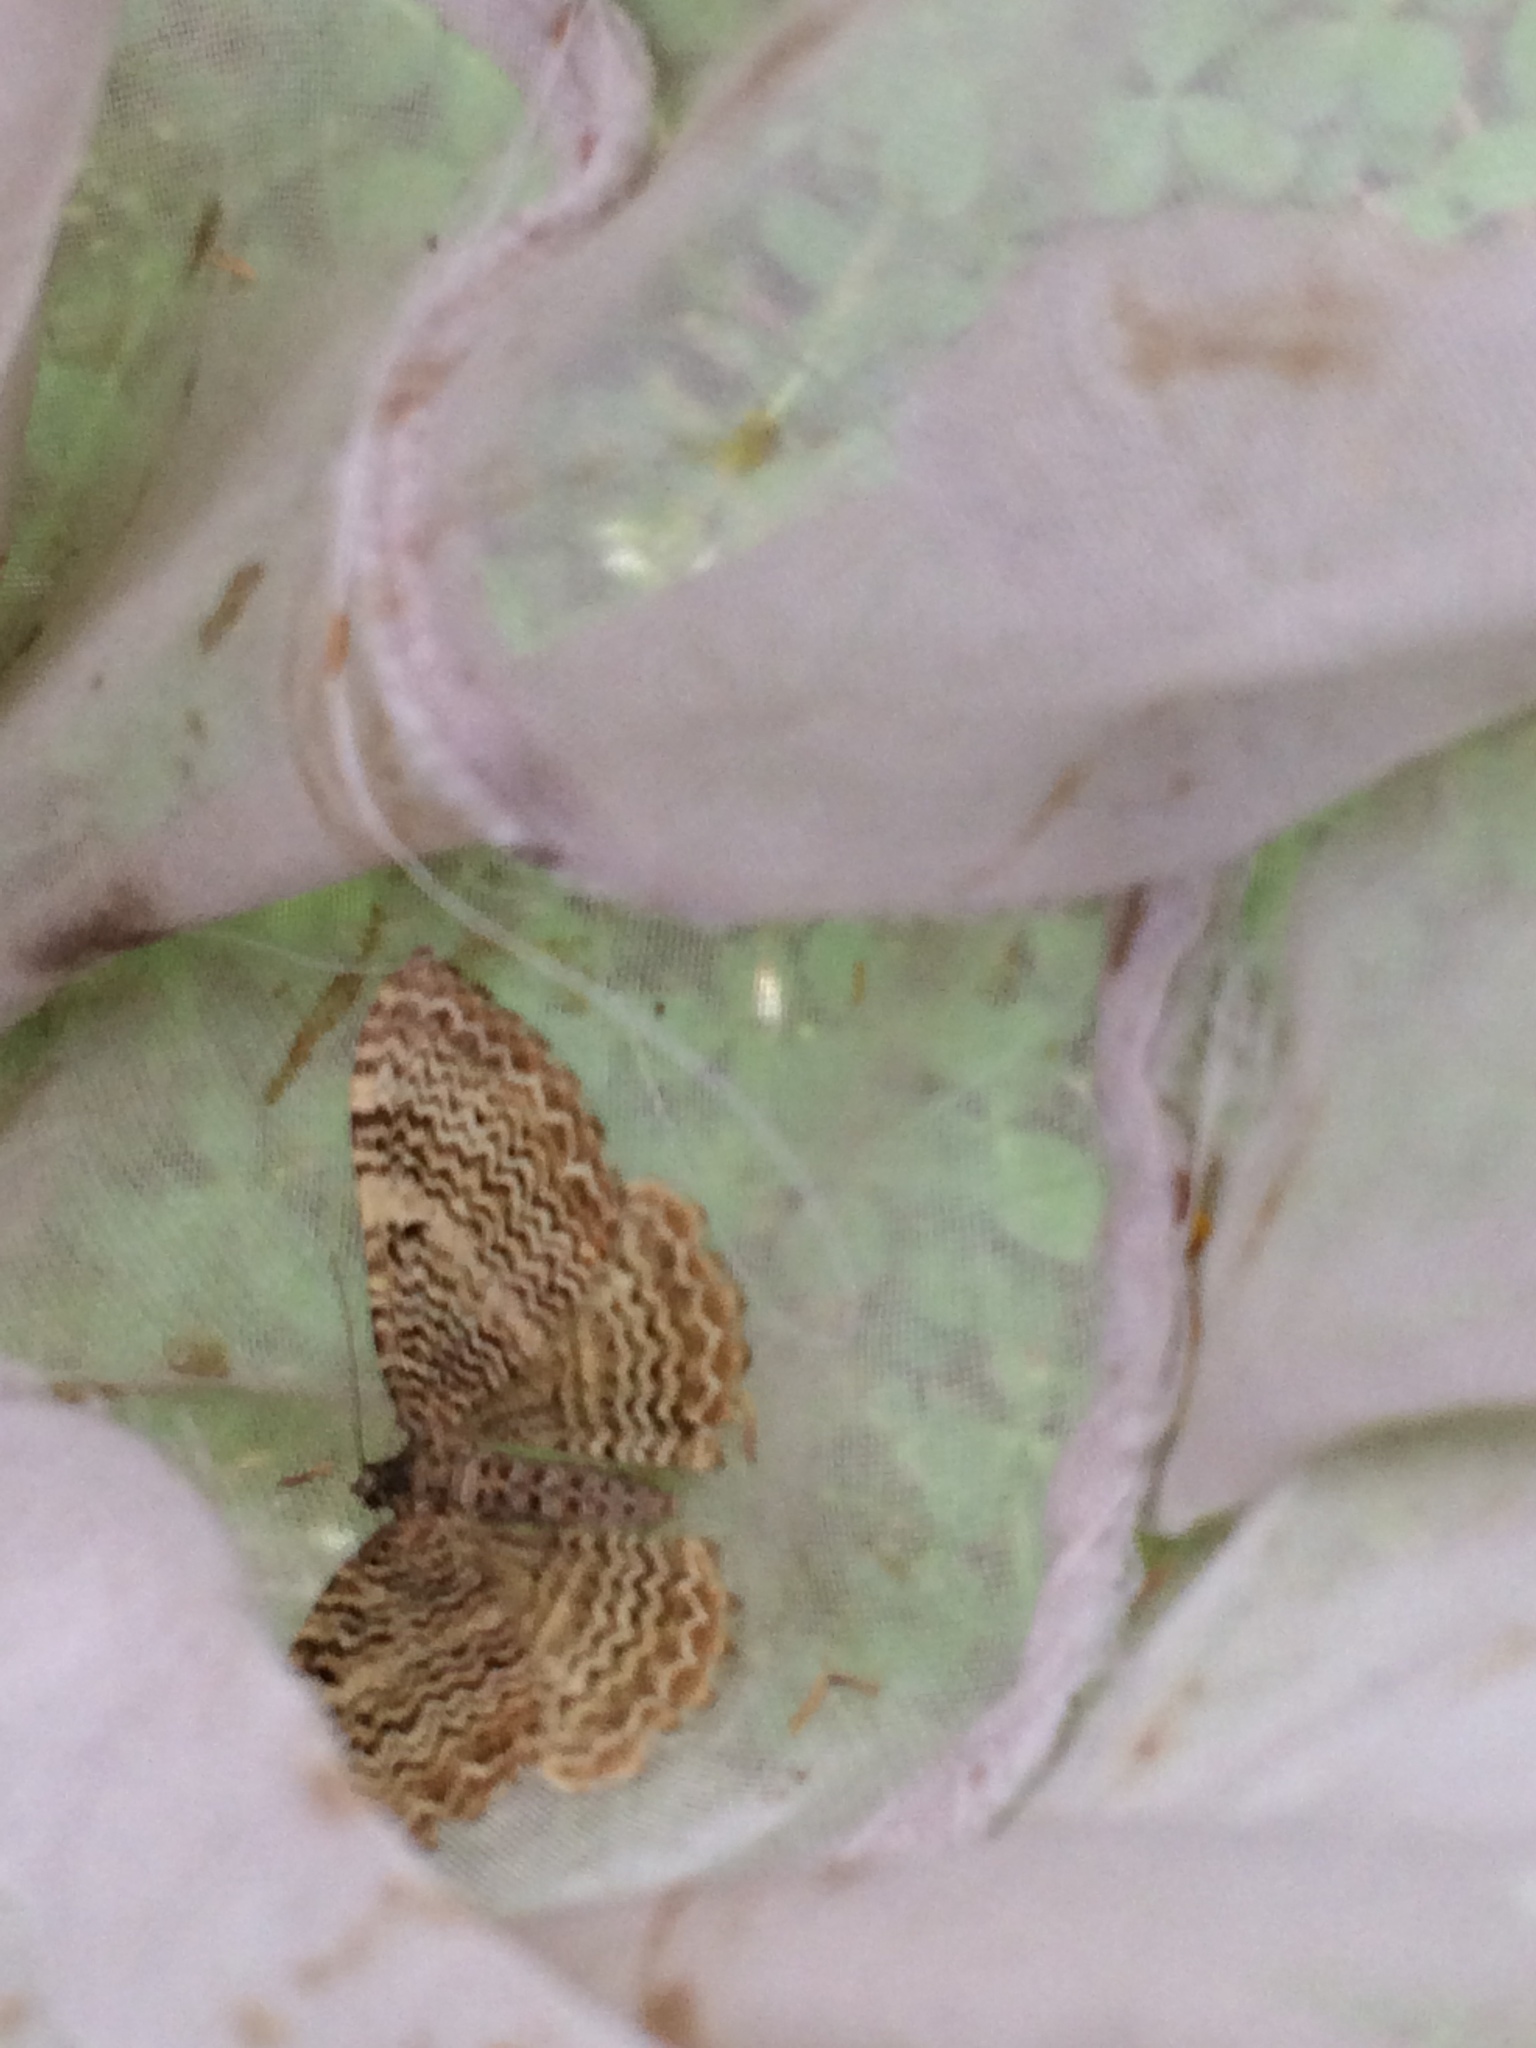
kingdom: Animalia
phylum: Arthropoda
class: Insecta
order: Lepidoptera
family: Geometridae
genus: Rheumaptera
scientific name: Rheumaptera undulata
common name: Scallop shell
